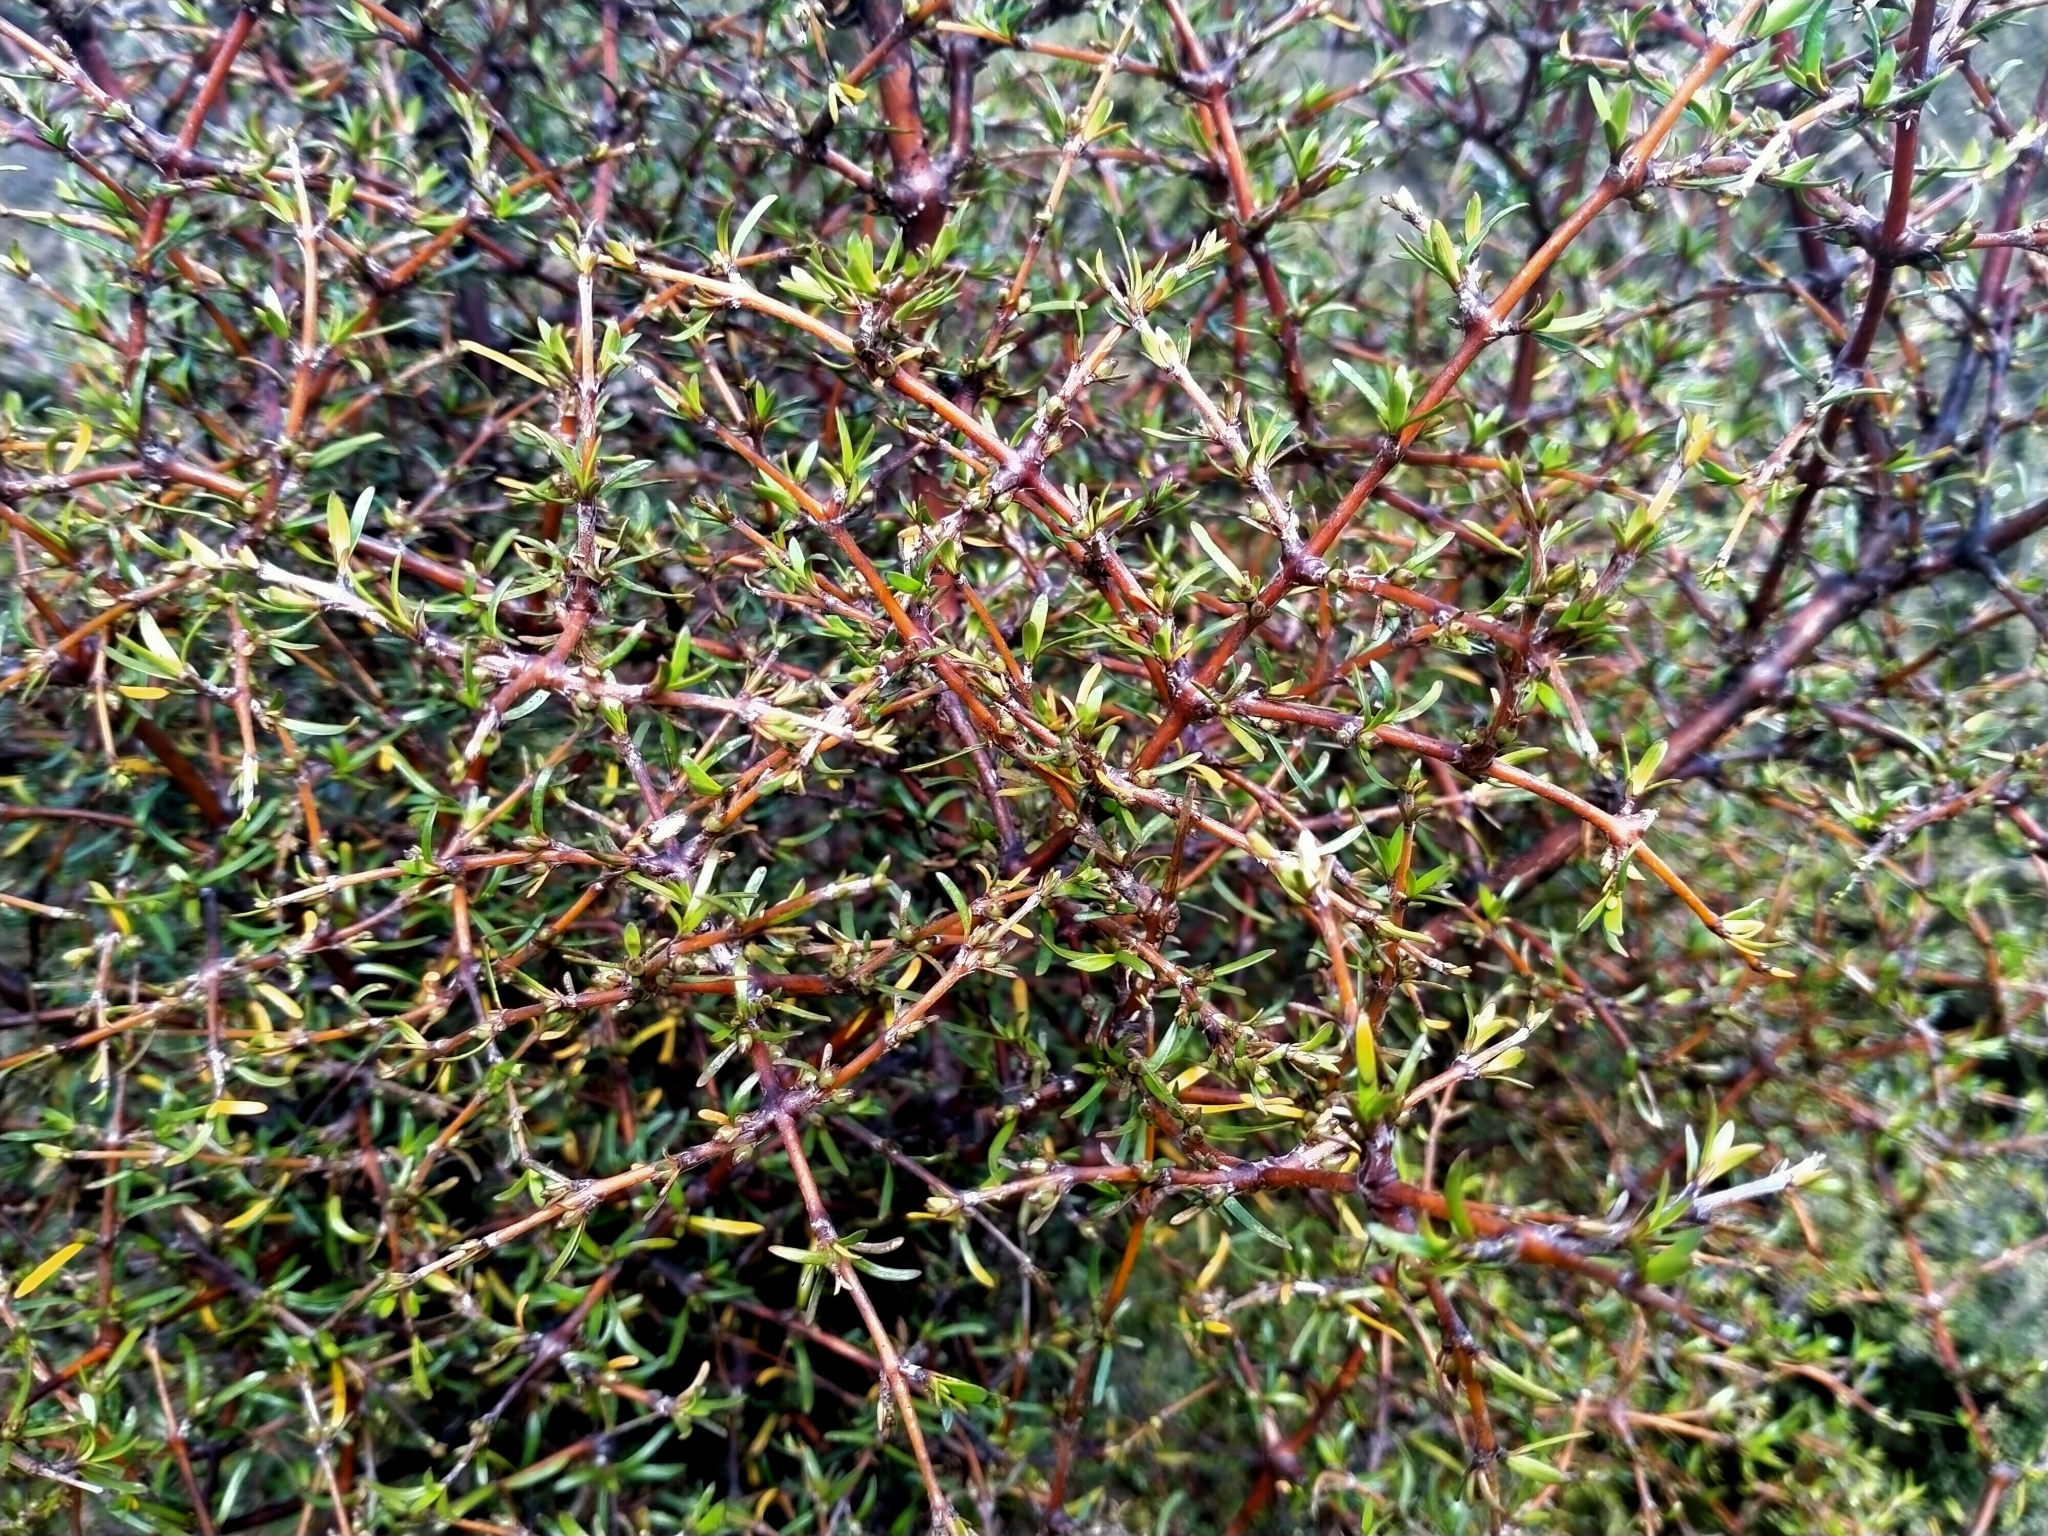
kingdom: Plantae
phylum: Tracheophyta
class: Magnoliopsida
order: Gentianales
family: Rubiaceae
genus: Coprosma
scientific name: Coprosma rugosa
